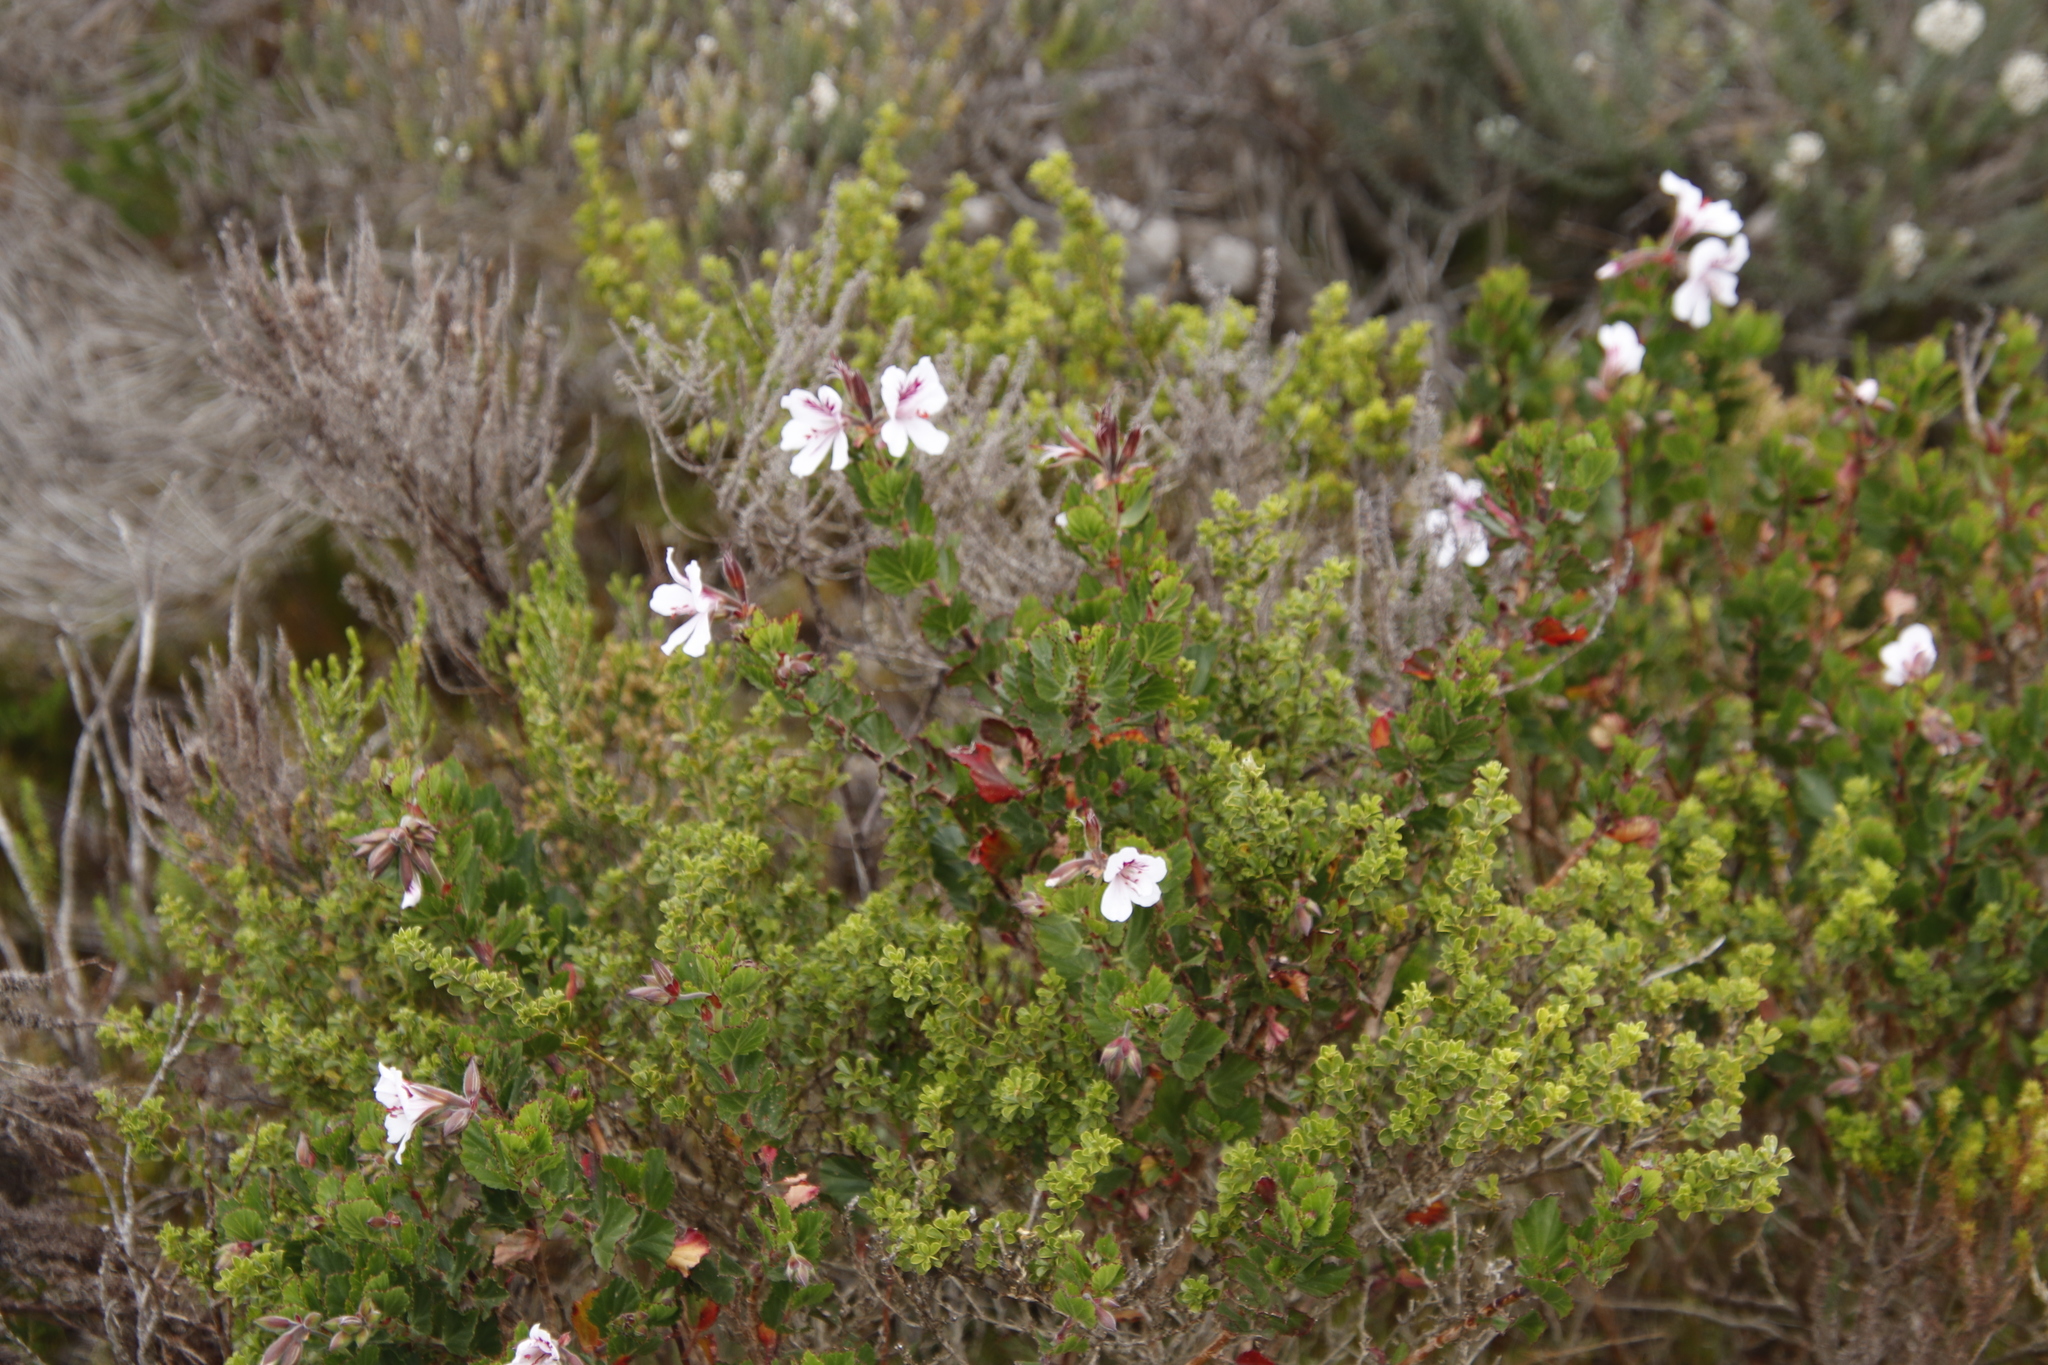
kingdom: Plantae
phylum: Tracheophyta
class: Magnoliopsida
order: Geraniales
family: Geraniaceae
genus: Pelargonium
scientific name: Pelargonium betulinum
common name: Birch-leaf pelargonium
